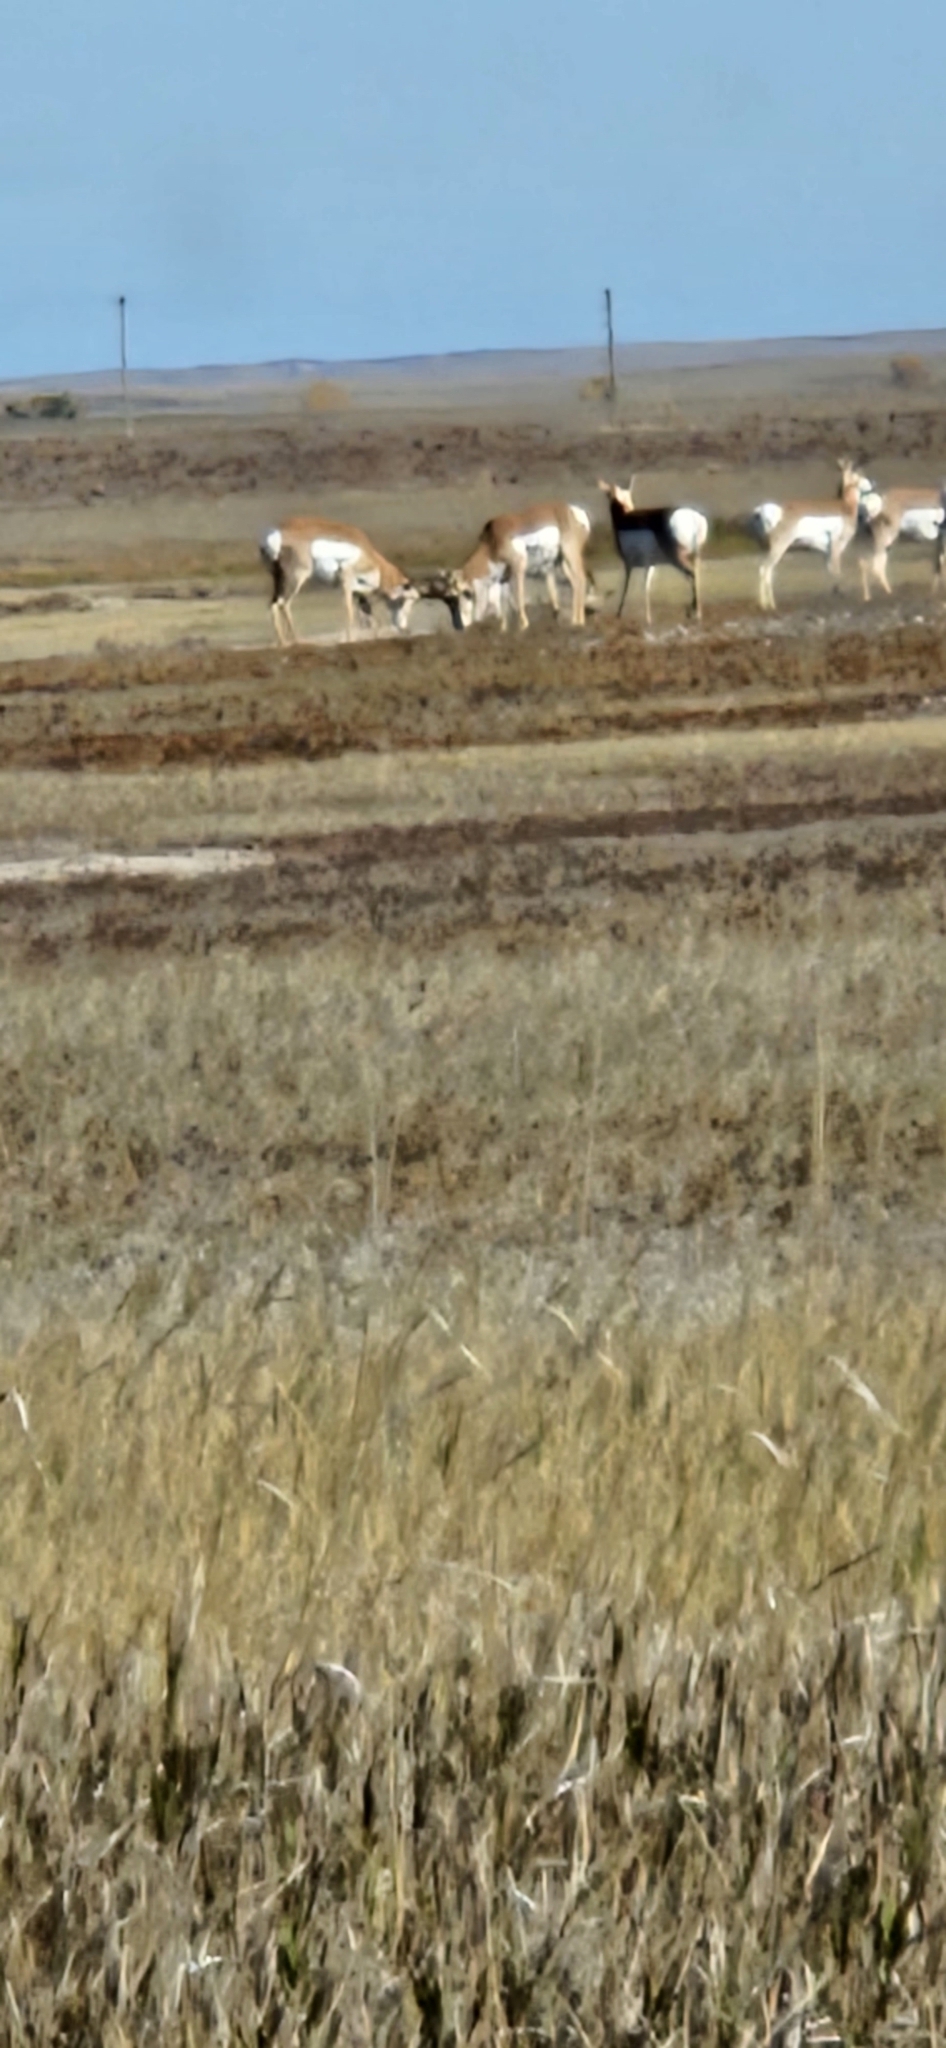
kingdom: Animalia
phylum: Chordata
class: Mammalia
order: Artiodactyla
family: Antilocapridae
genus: Antilocapra
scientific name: Antilocapra americana
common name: Pronghorn
